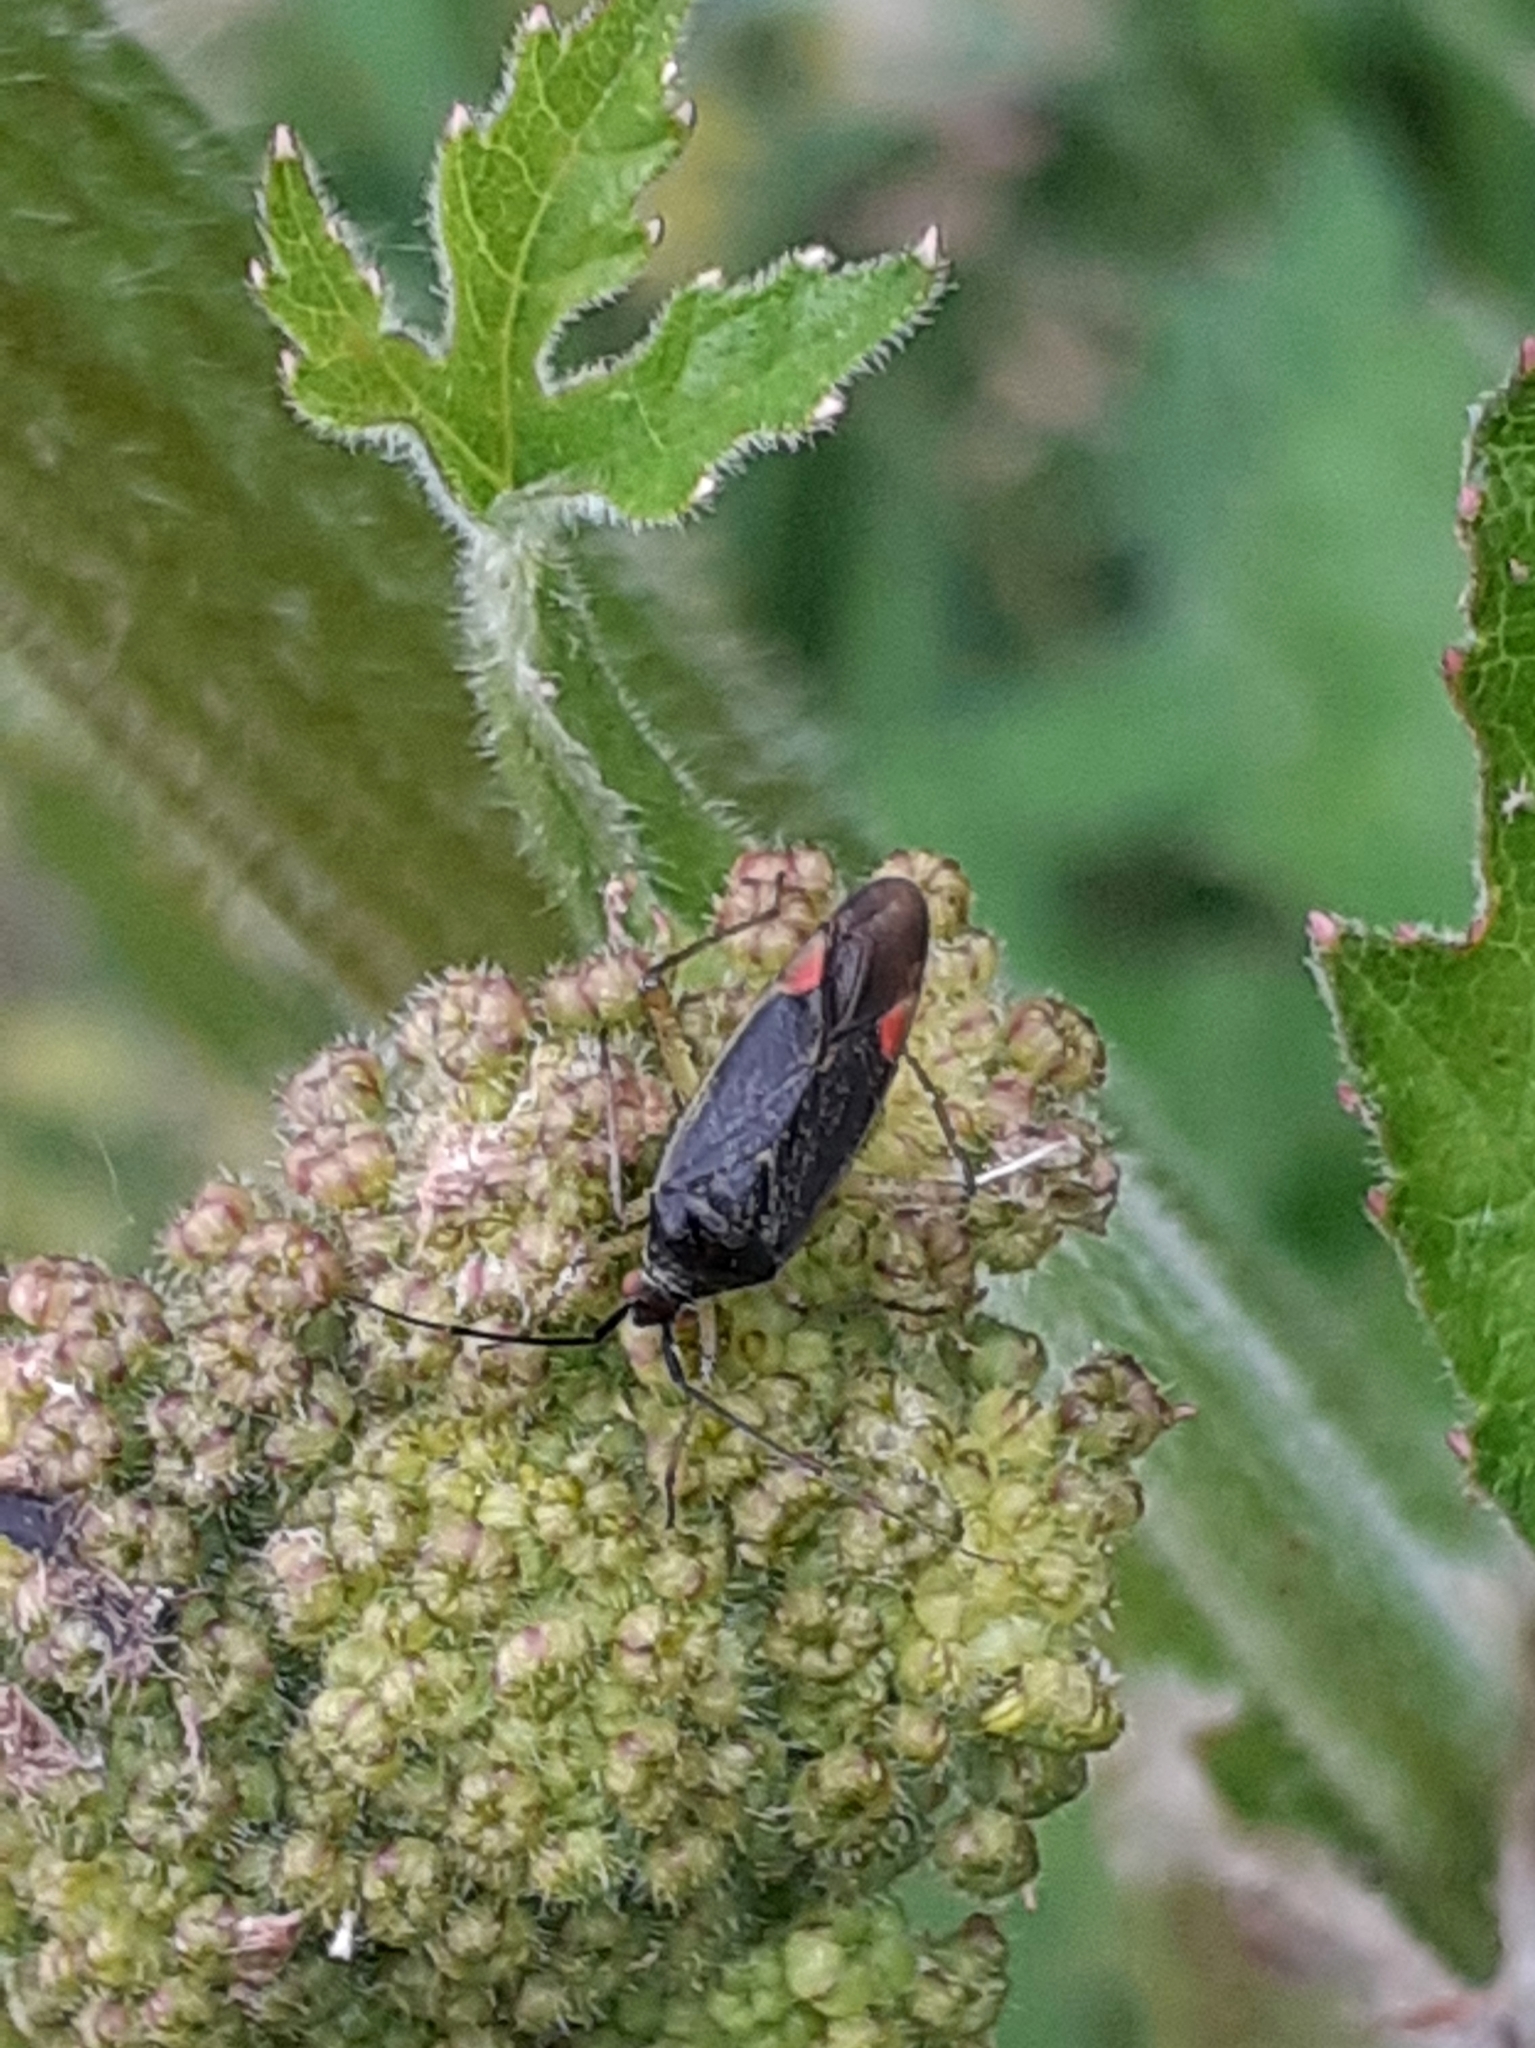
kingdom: Animalia
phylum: Arthropoda
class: Insecta
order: Hemiptera
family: Miridae
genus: Closterotomus
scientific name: Closterotomus trivialis
